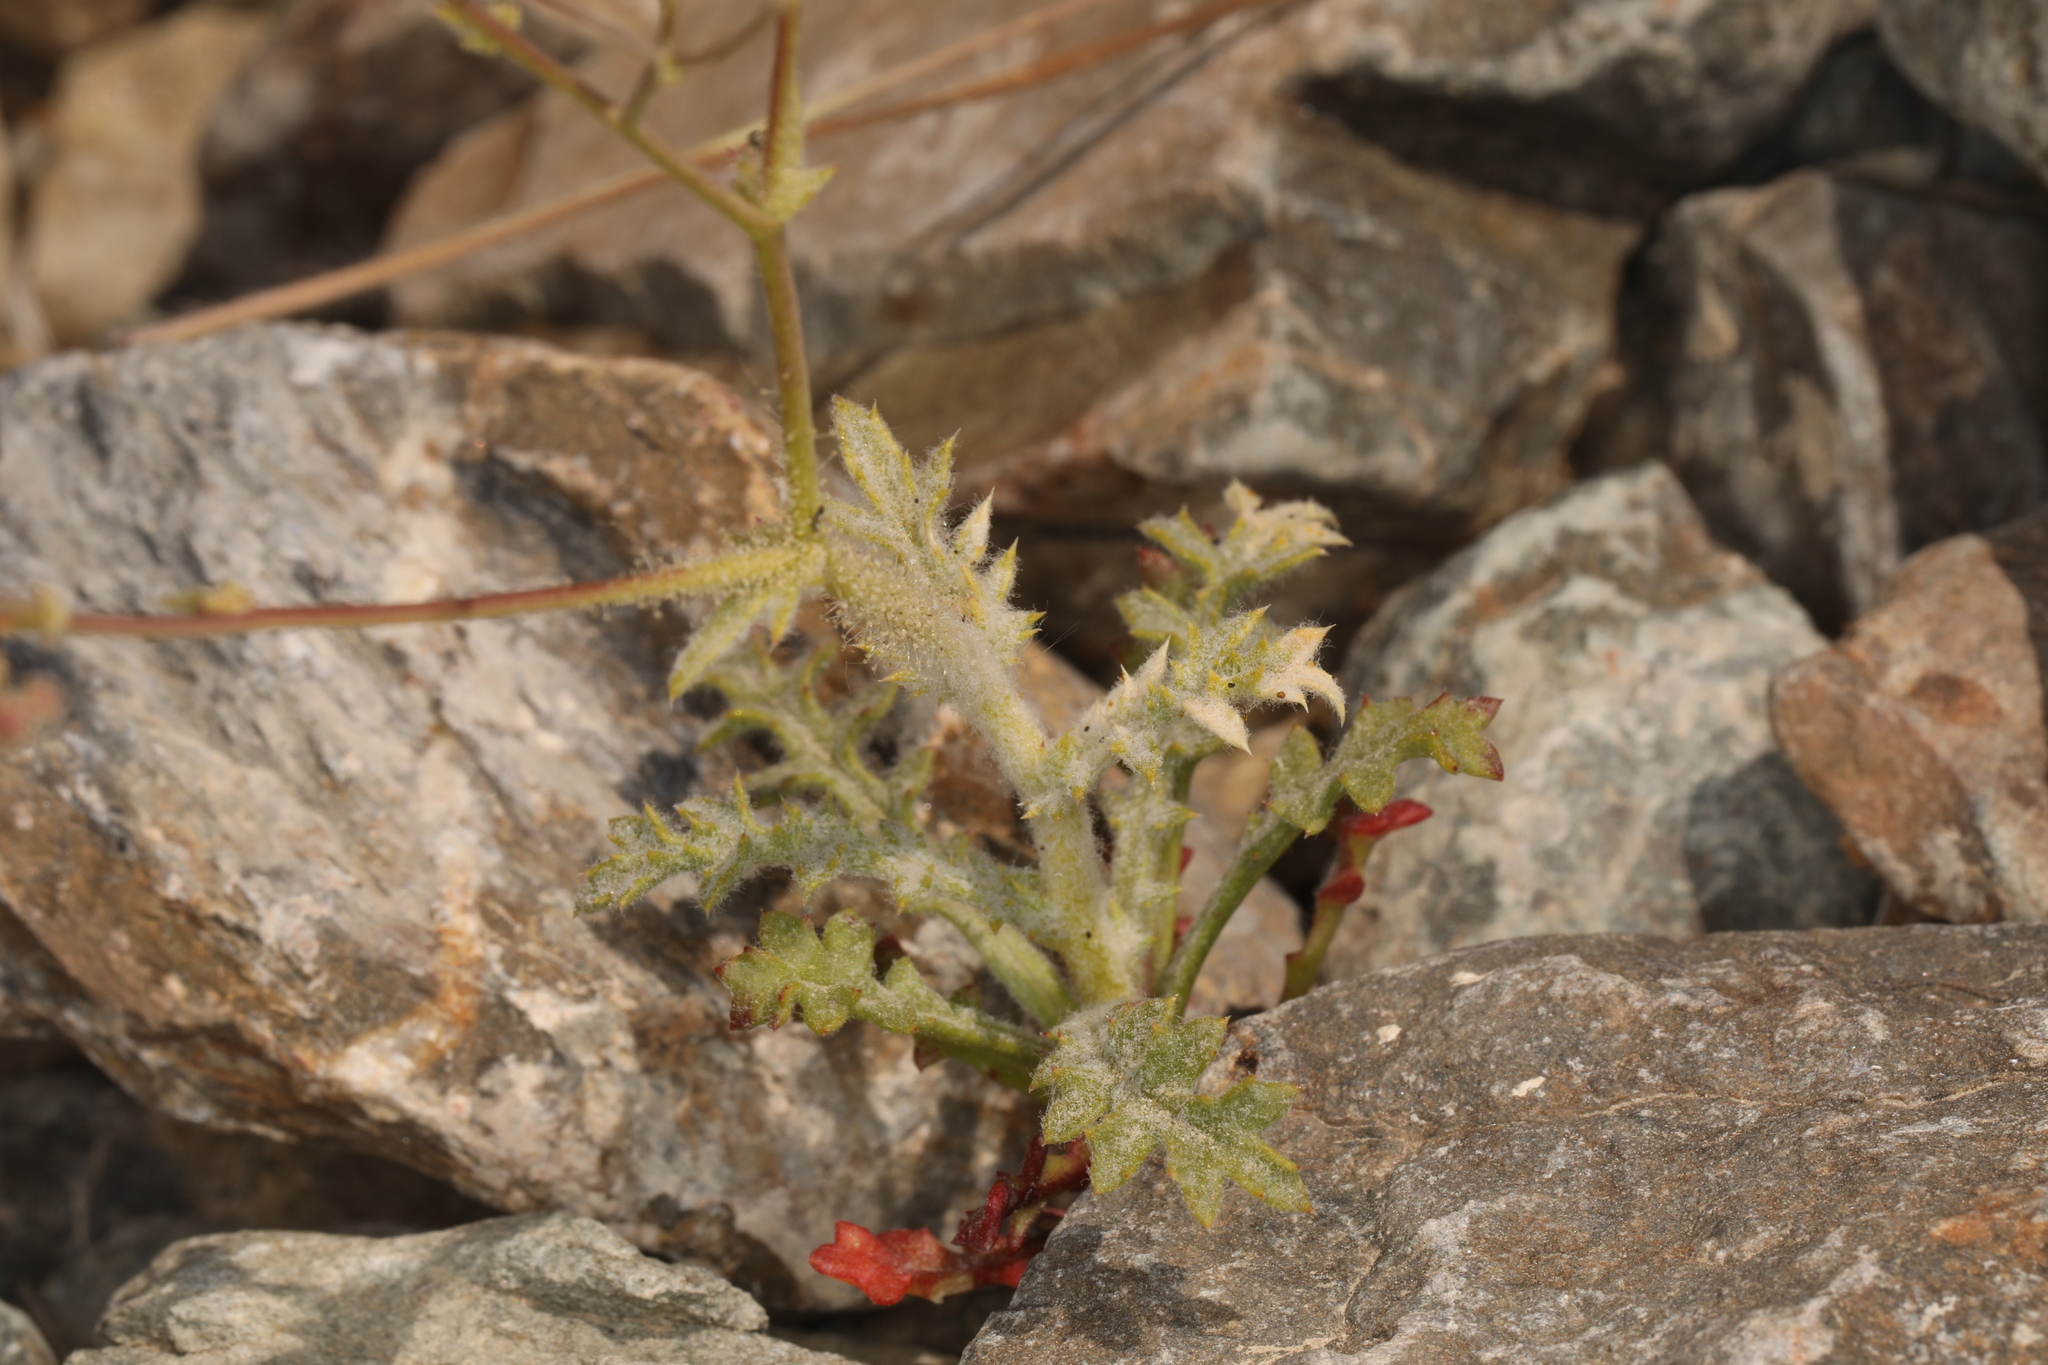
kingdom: Plantae
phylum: Tracheophyta
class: Magnoliopsida
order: Ericales
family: Polemoniaceae
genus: Gilia
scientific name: Gilia cana
